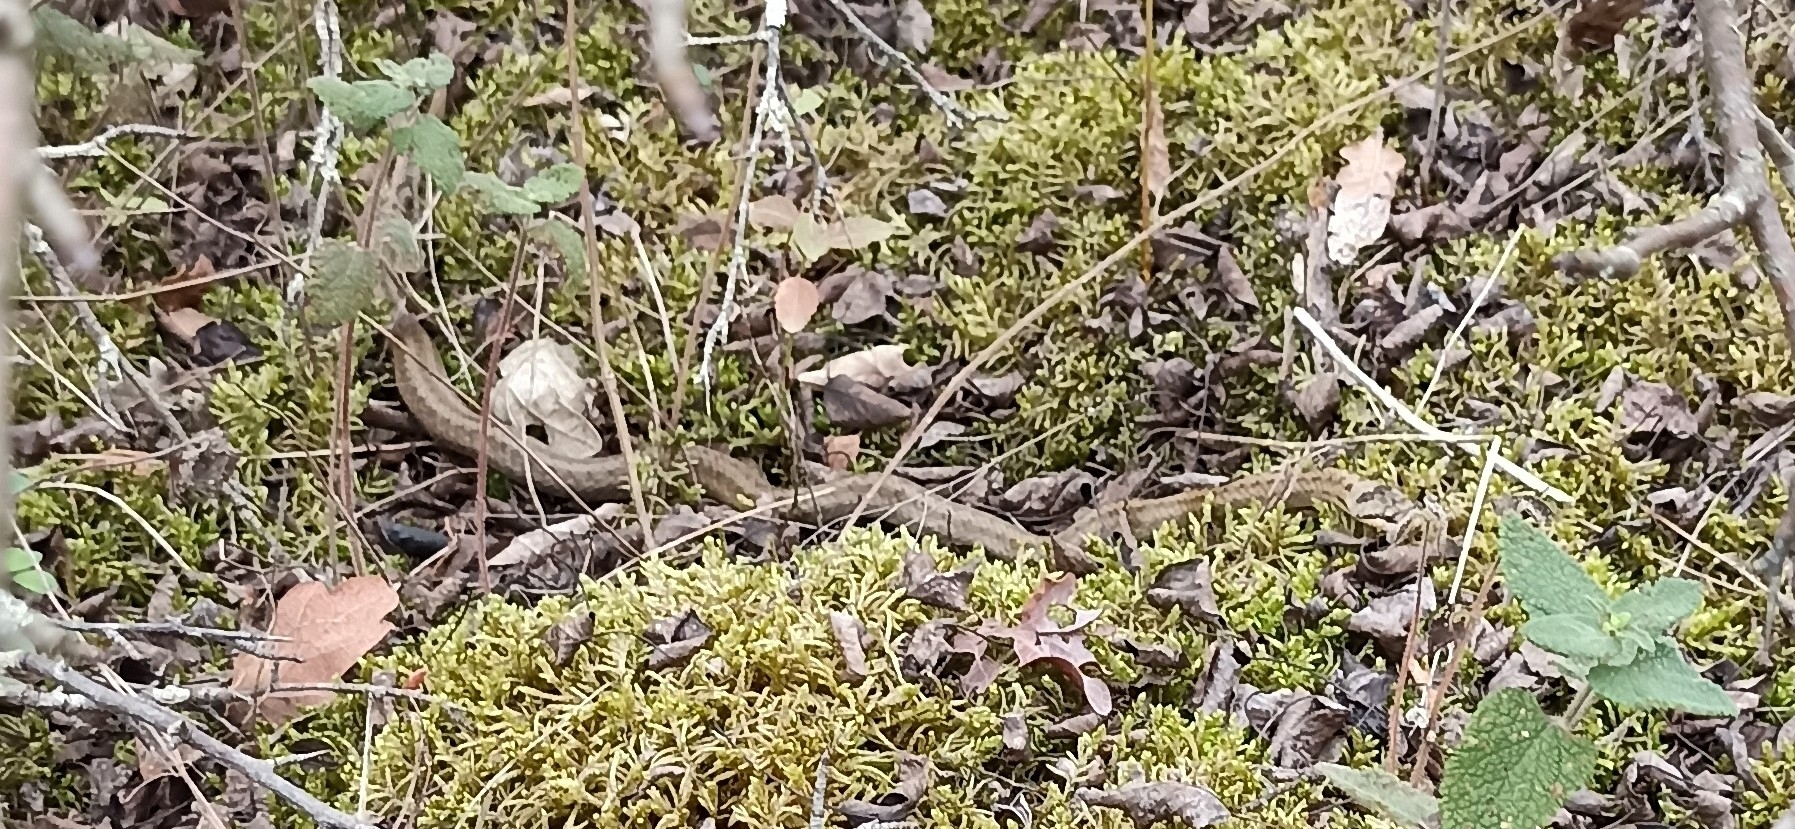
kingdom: Animalia
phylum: Chordata
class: Squamata
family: Colubridae
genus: Coronella
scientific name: Coronella austriaca
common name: Smooth snake
